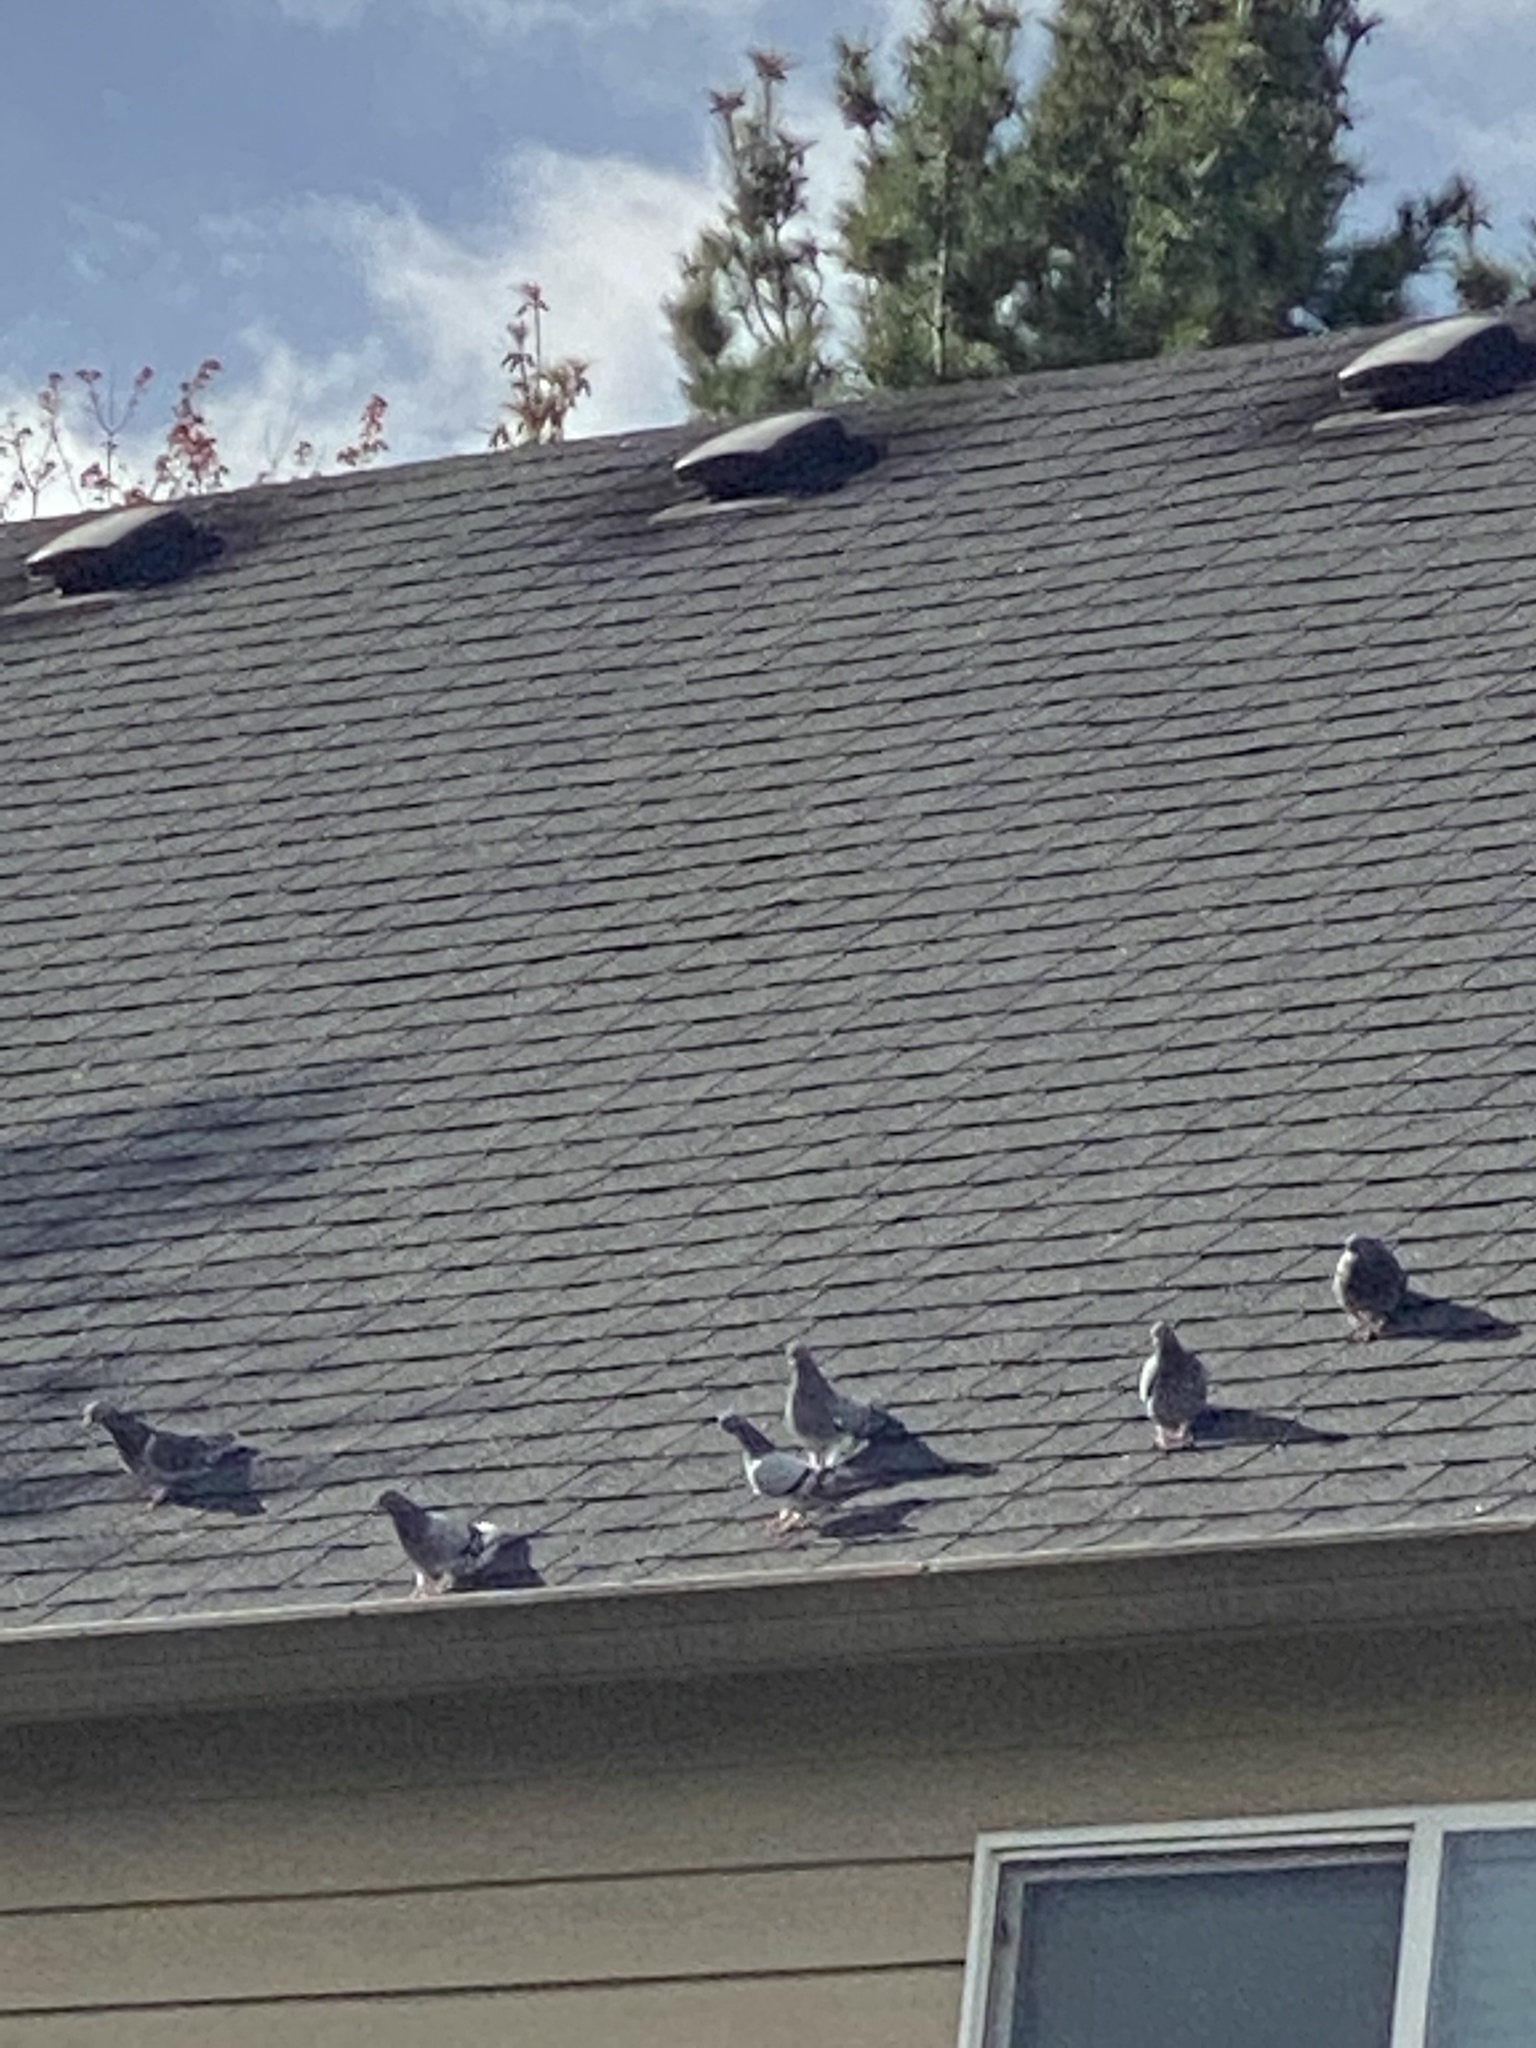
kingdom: Animalia
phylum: Chordata
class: Aves
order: Columbiformes
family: Columbidae
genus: Columba
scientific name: Columba livia
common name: Rock pigeon
